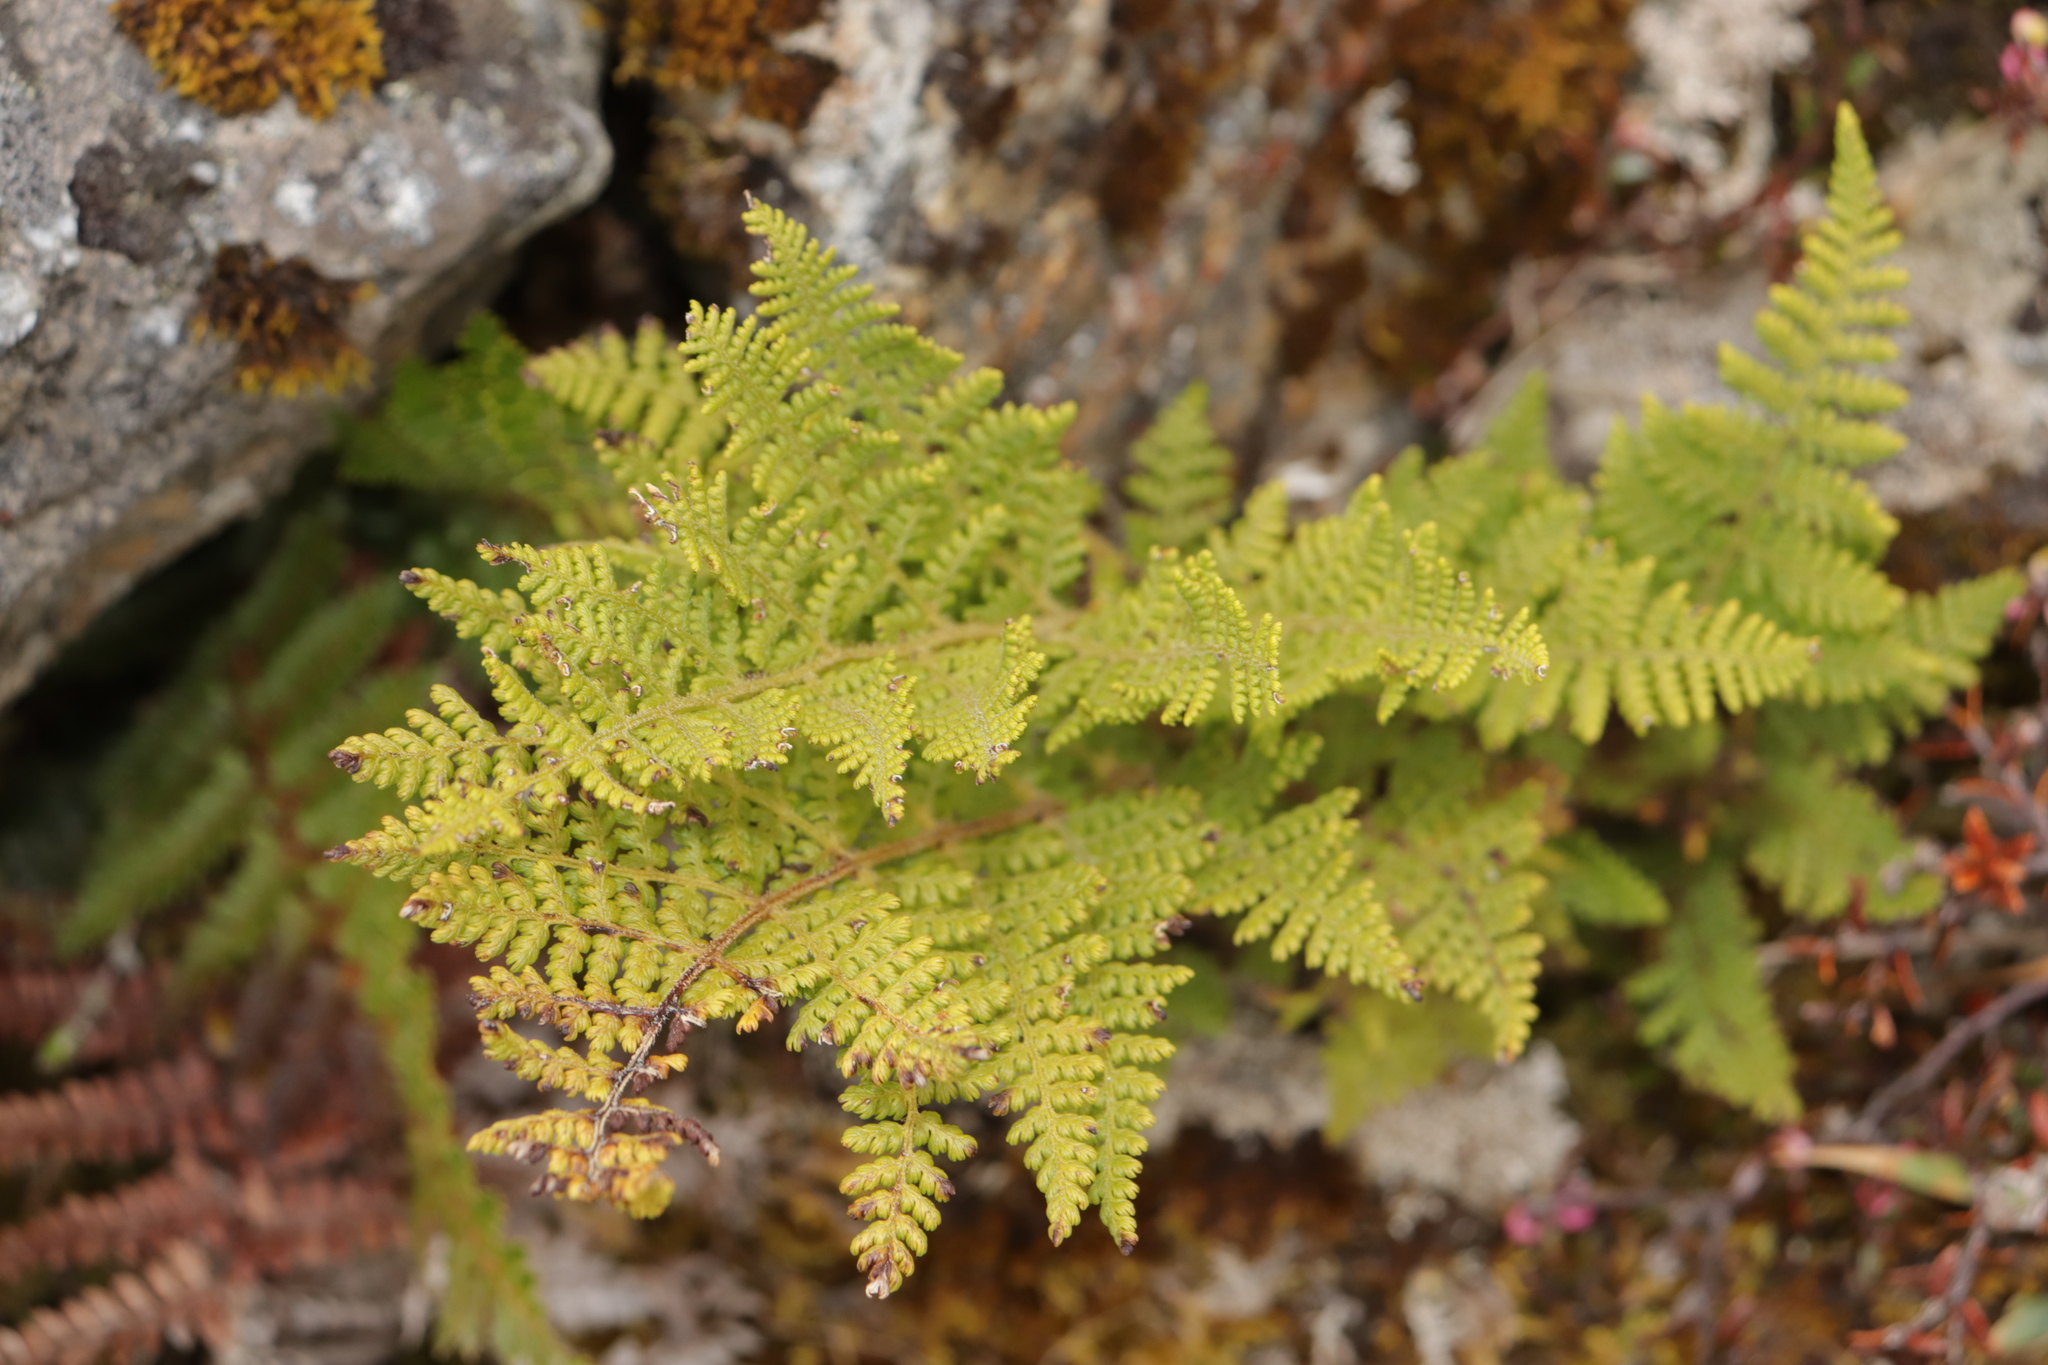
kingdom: Plantae
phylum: Tracheophyta
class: Polypodiopsida
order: Polypodiales
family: Dennstaedtiaceae
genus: Hypolepis
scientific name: Hypolepis millefolium
